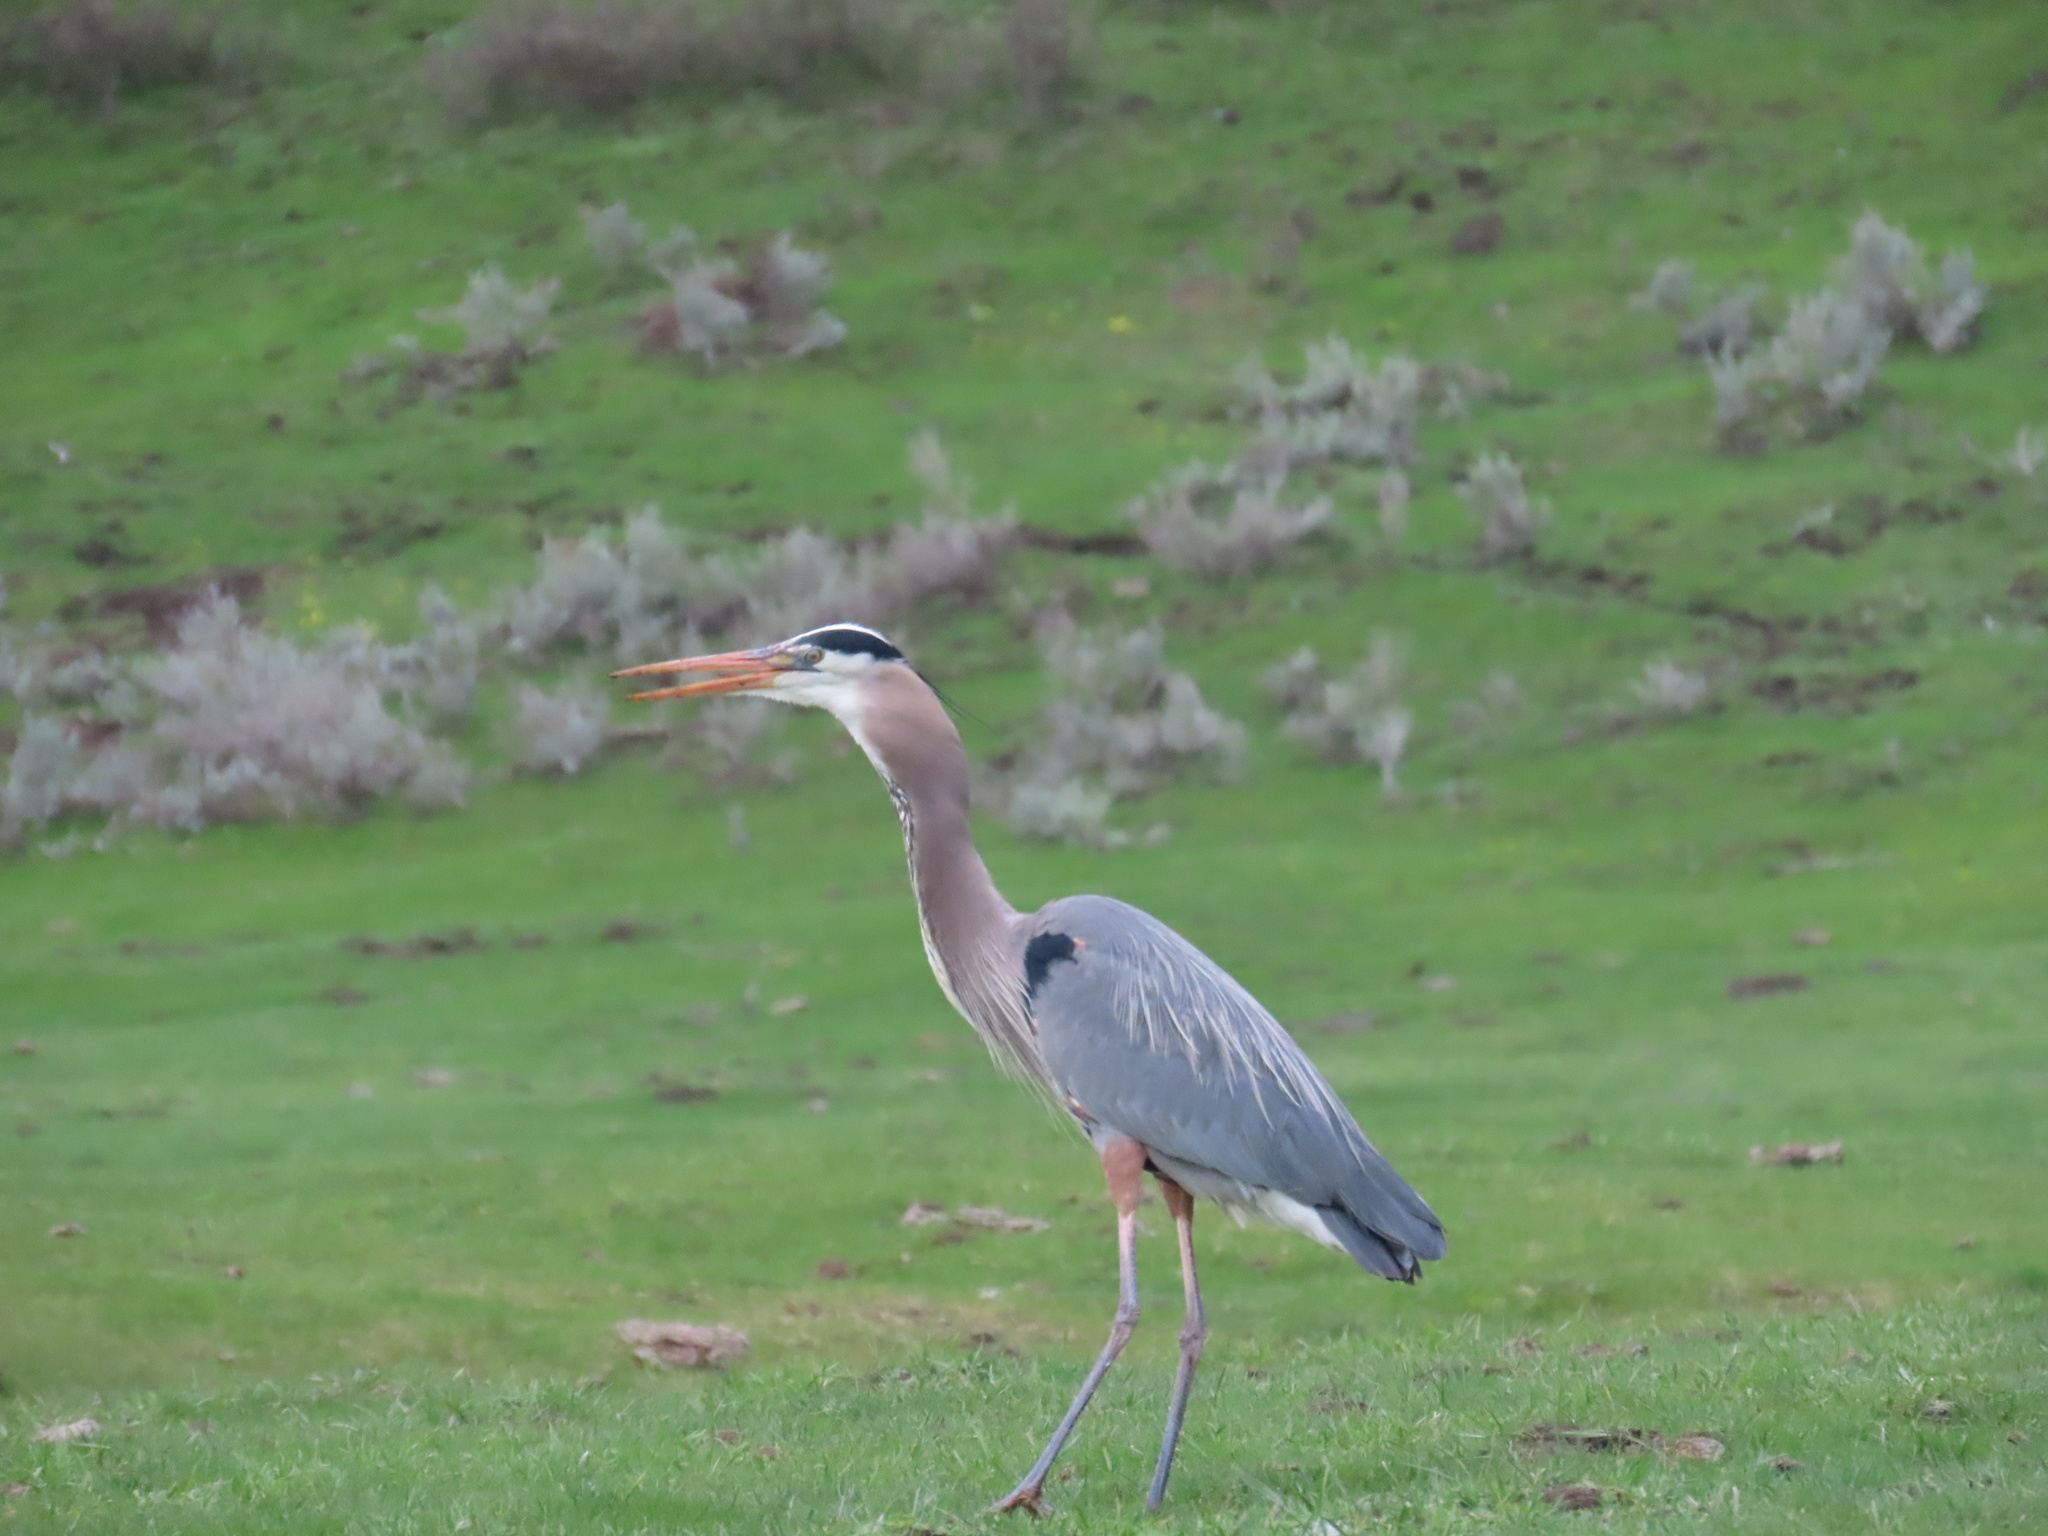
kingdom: Animalia
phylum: Chordata
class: Aves
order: Pelecaniformes
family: Ardeidae
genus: Ardea
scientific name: Ardea herodias
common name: Great blue heron
